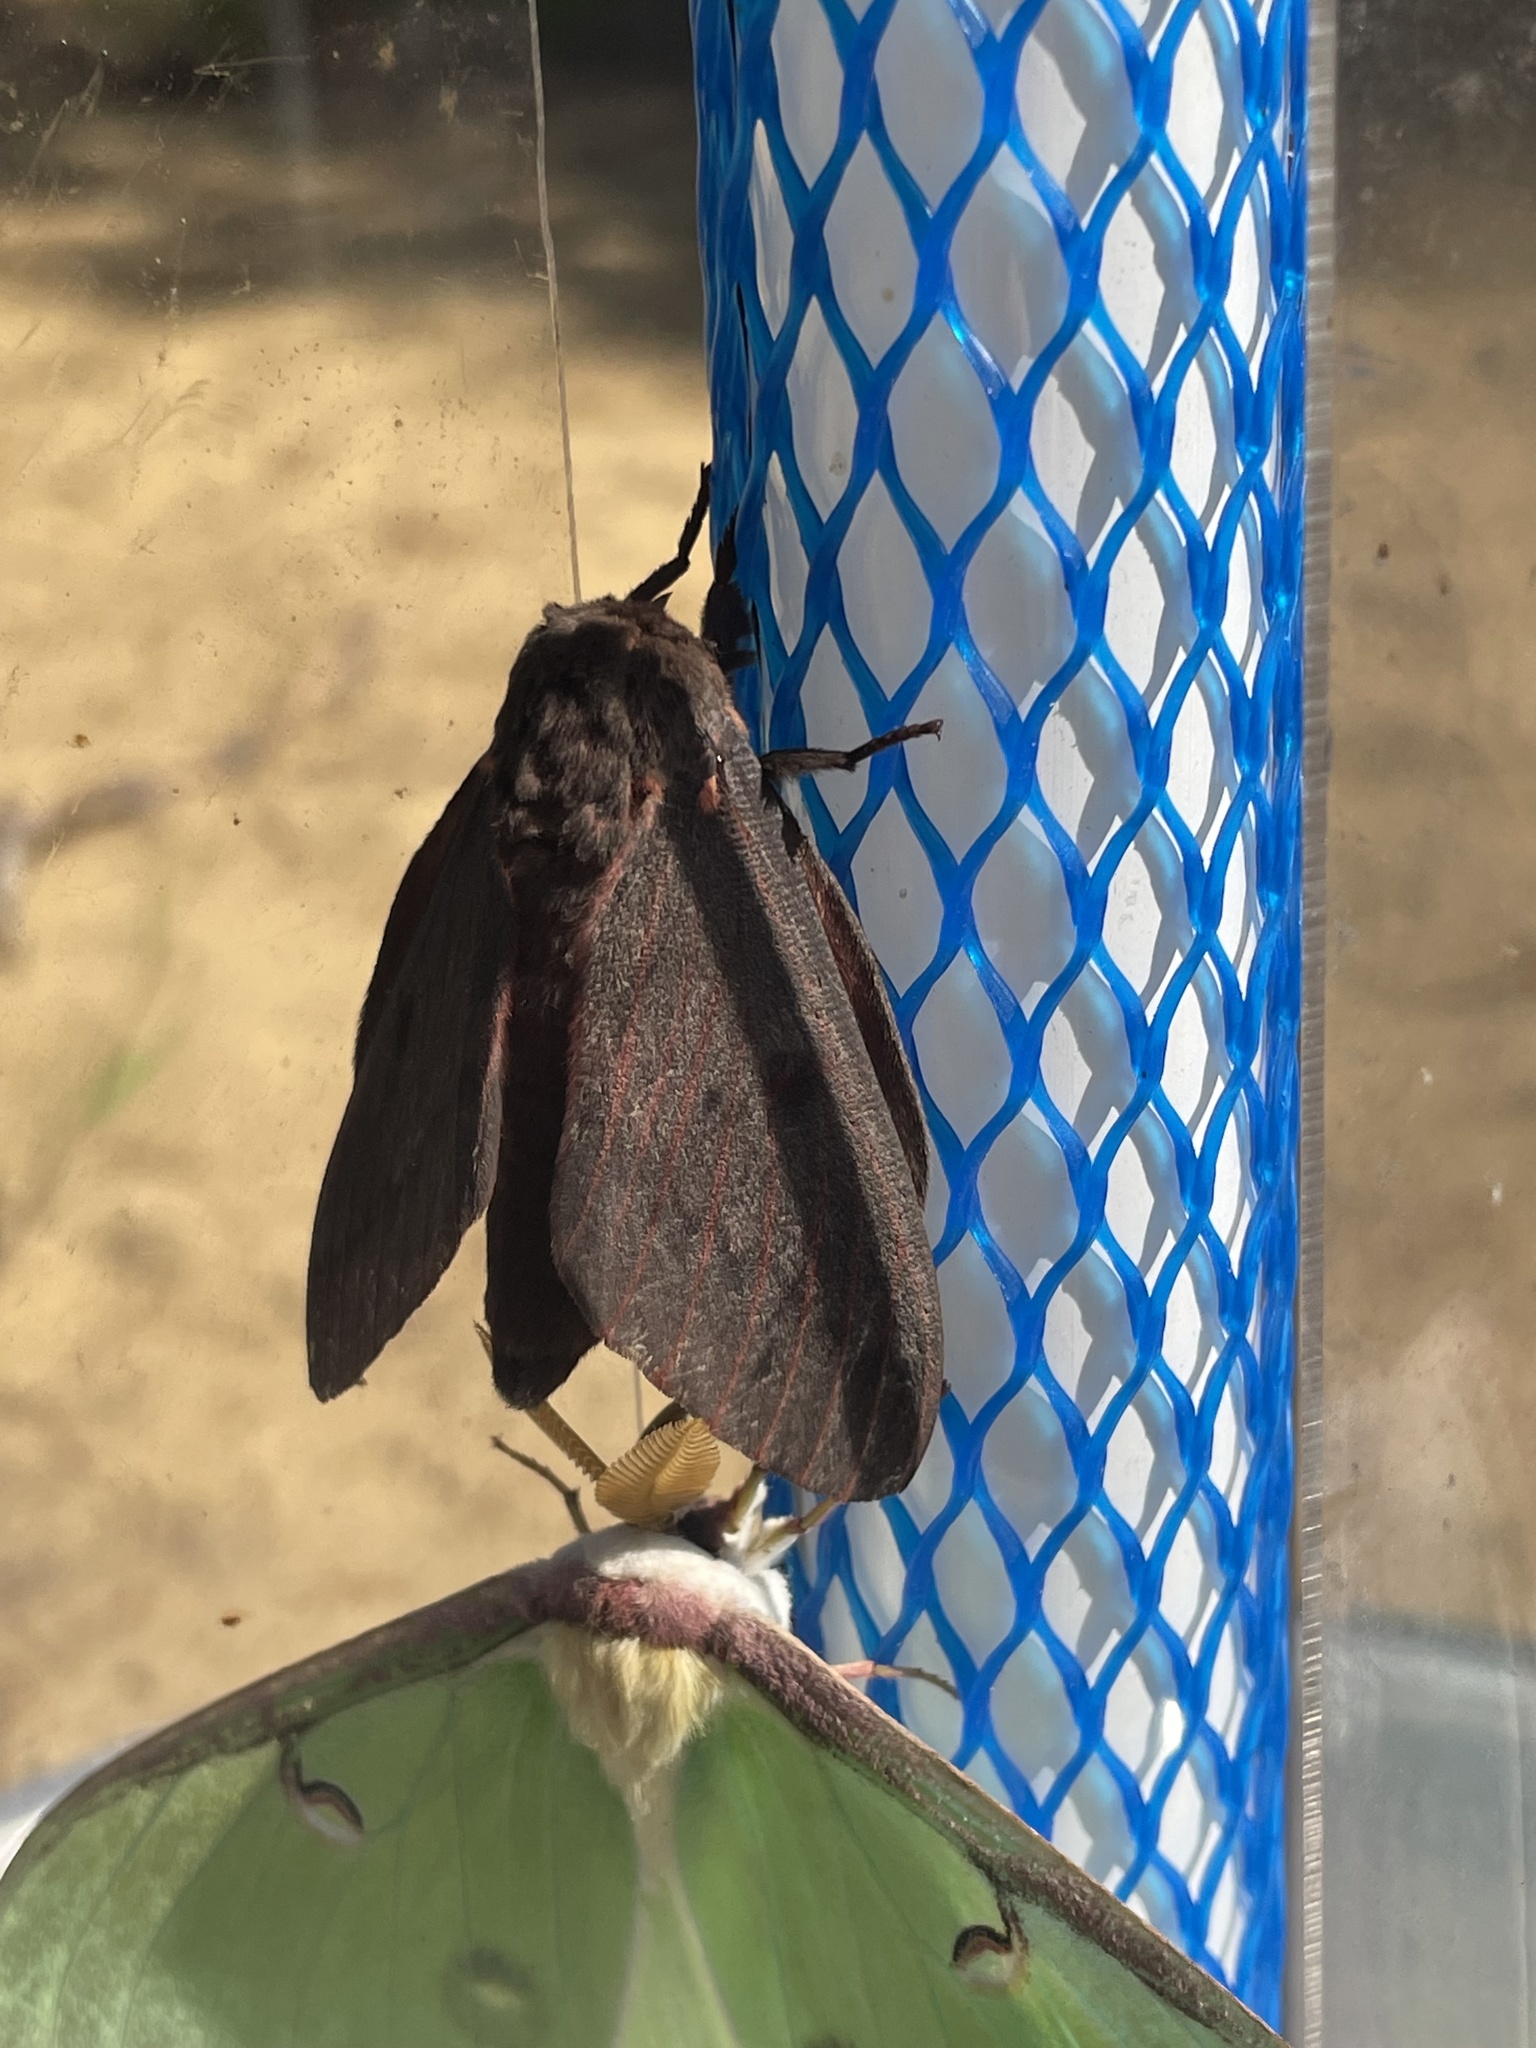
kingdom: Animalia
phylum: Arthropoda
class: Insecta
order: Lepidoptera
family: Saturniidae
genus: Citheronia
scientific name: Citheronia sepulcralis
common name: Pine-devil moth
